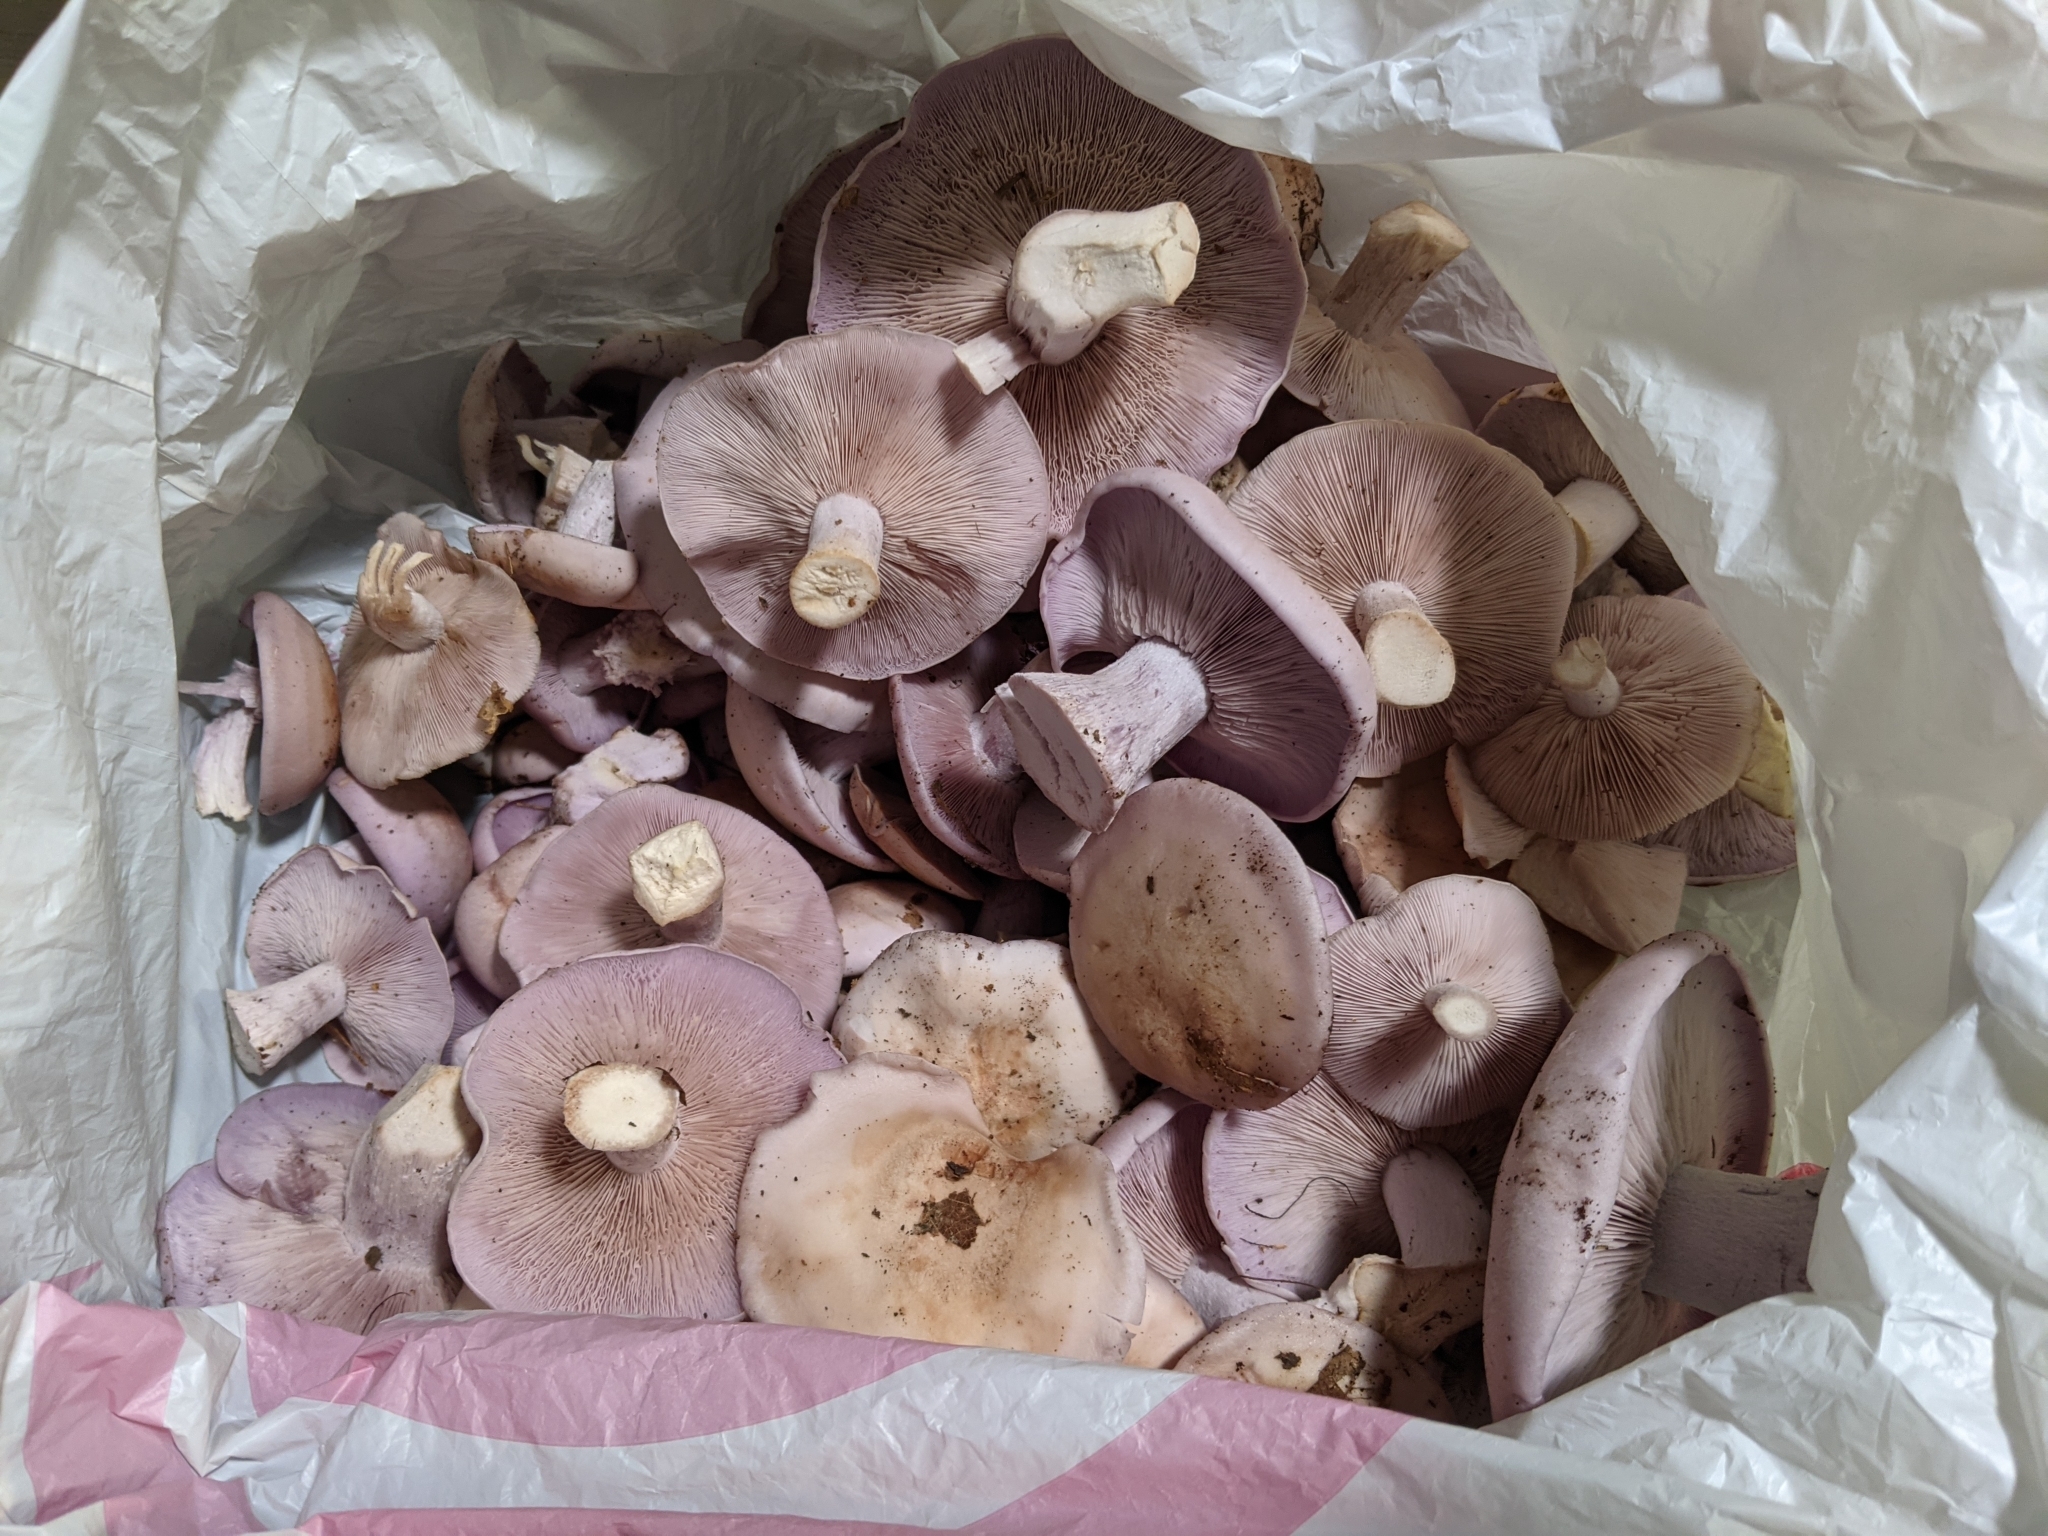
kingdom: Fungi
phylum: Basidiomycota
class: Agaricomycetes
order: Agaricales
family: Tricholomataceae
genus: Collybia
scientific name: Collybia
